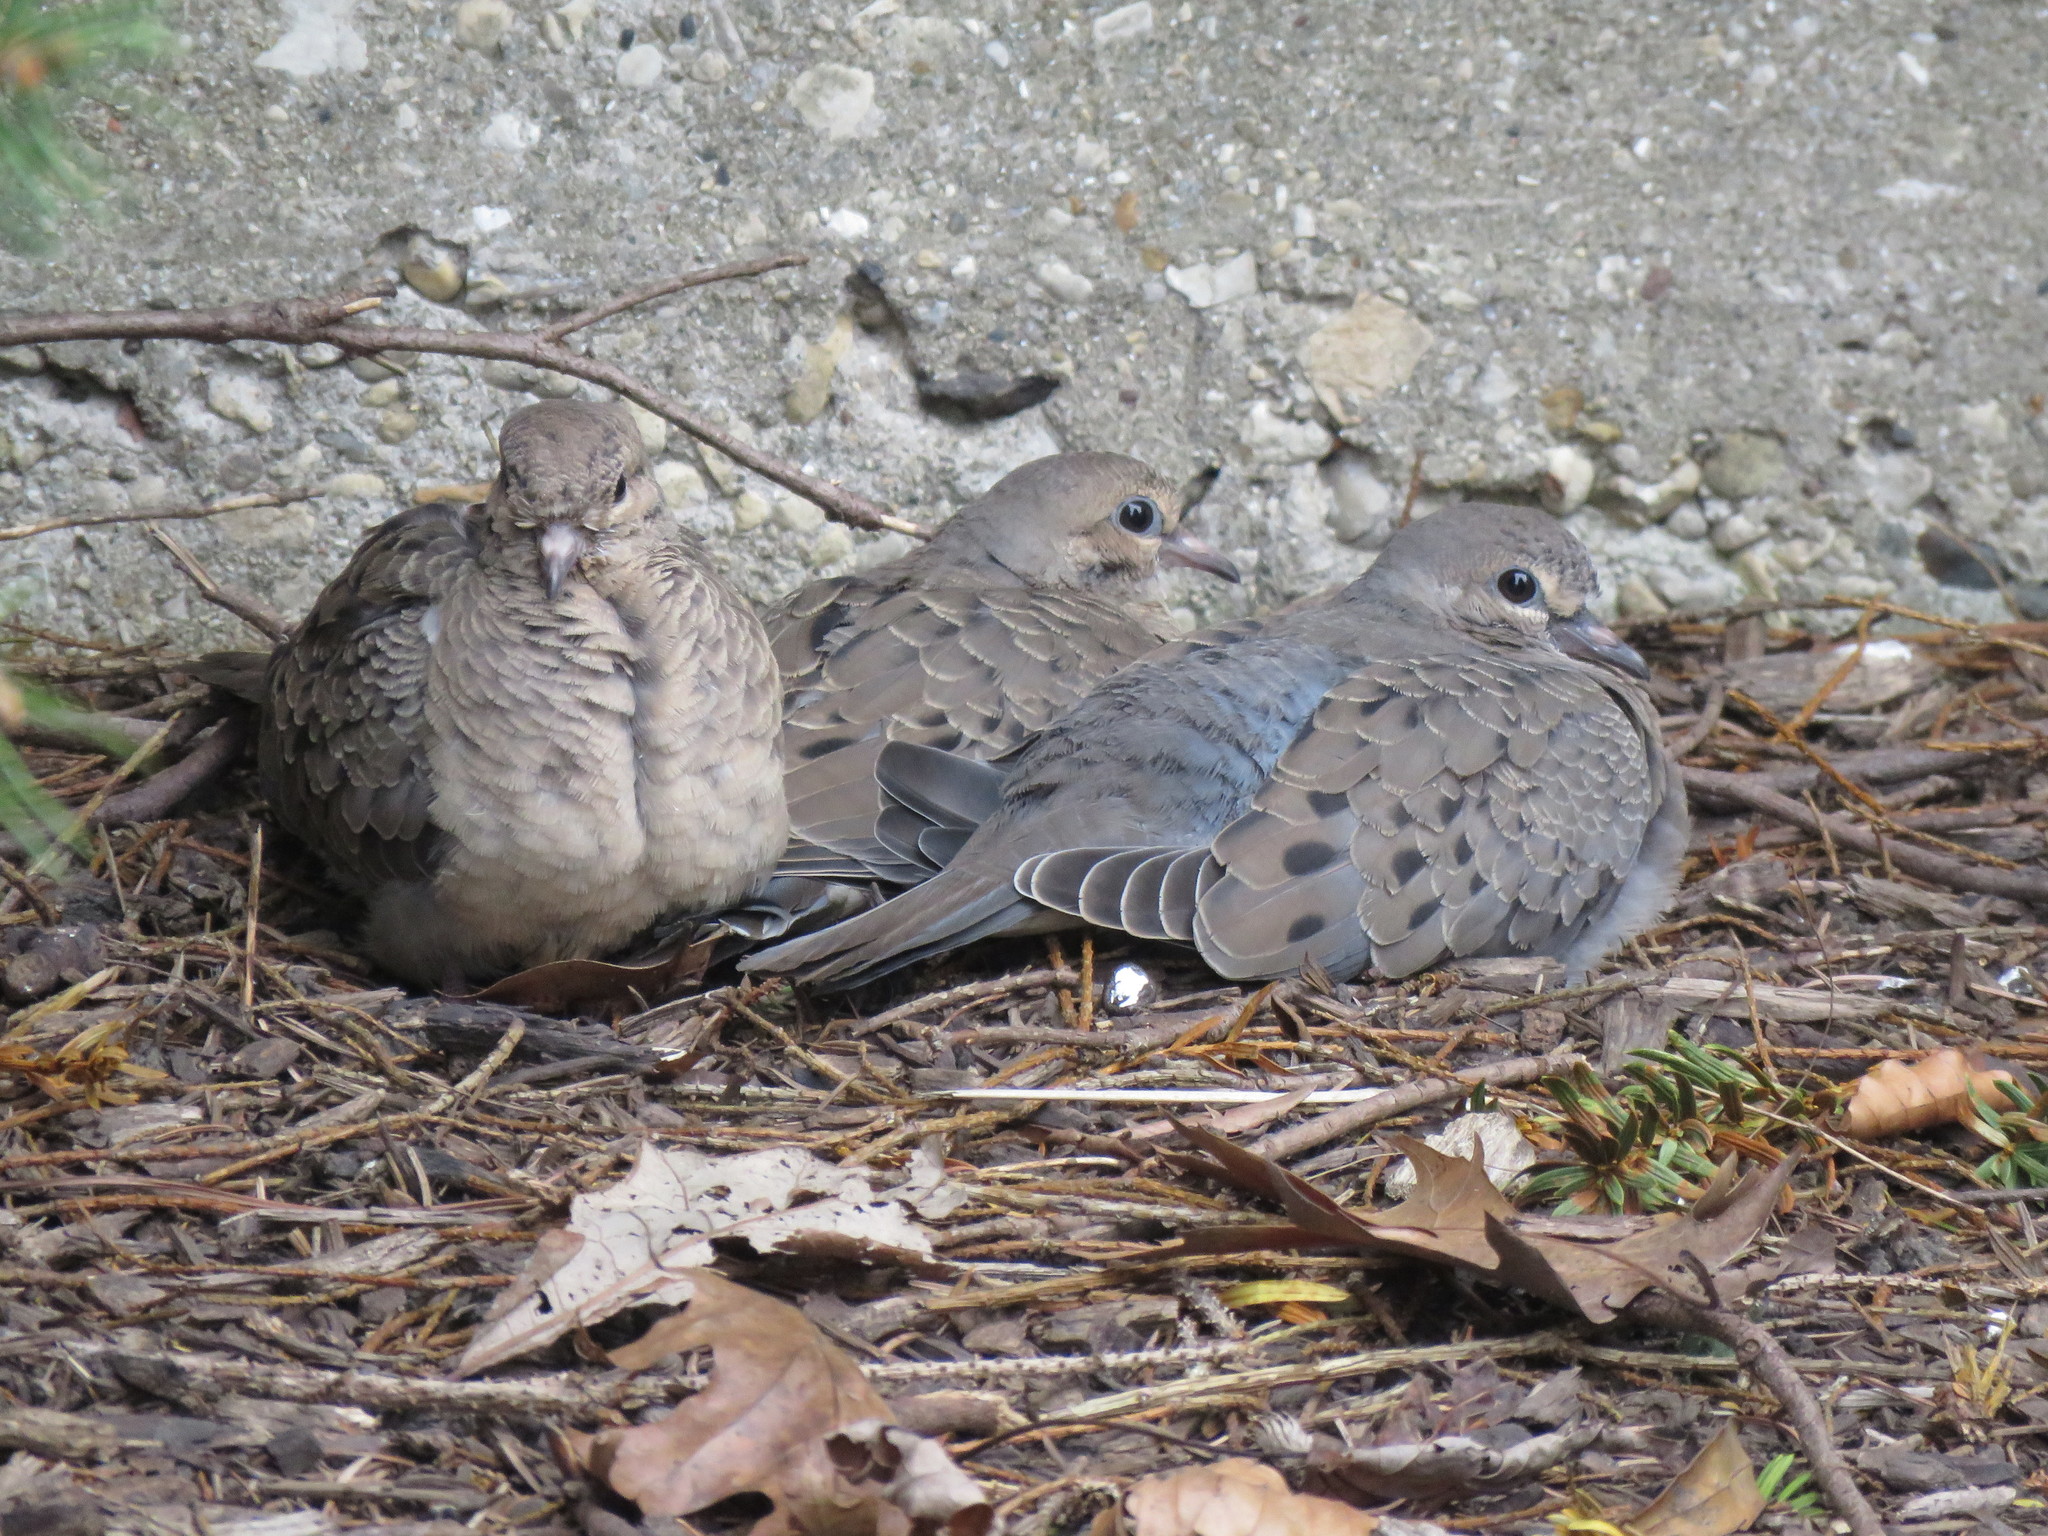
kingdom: Animalia
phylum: Chordata
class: Aves
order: Columbiformes
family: Columbidae
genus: Zenaida
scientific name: Zenaida macroura
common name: Mourning dove
